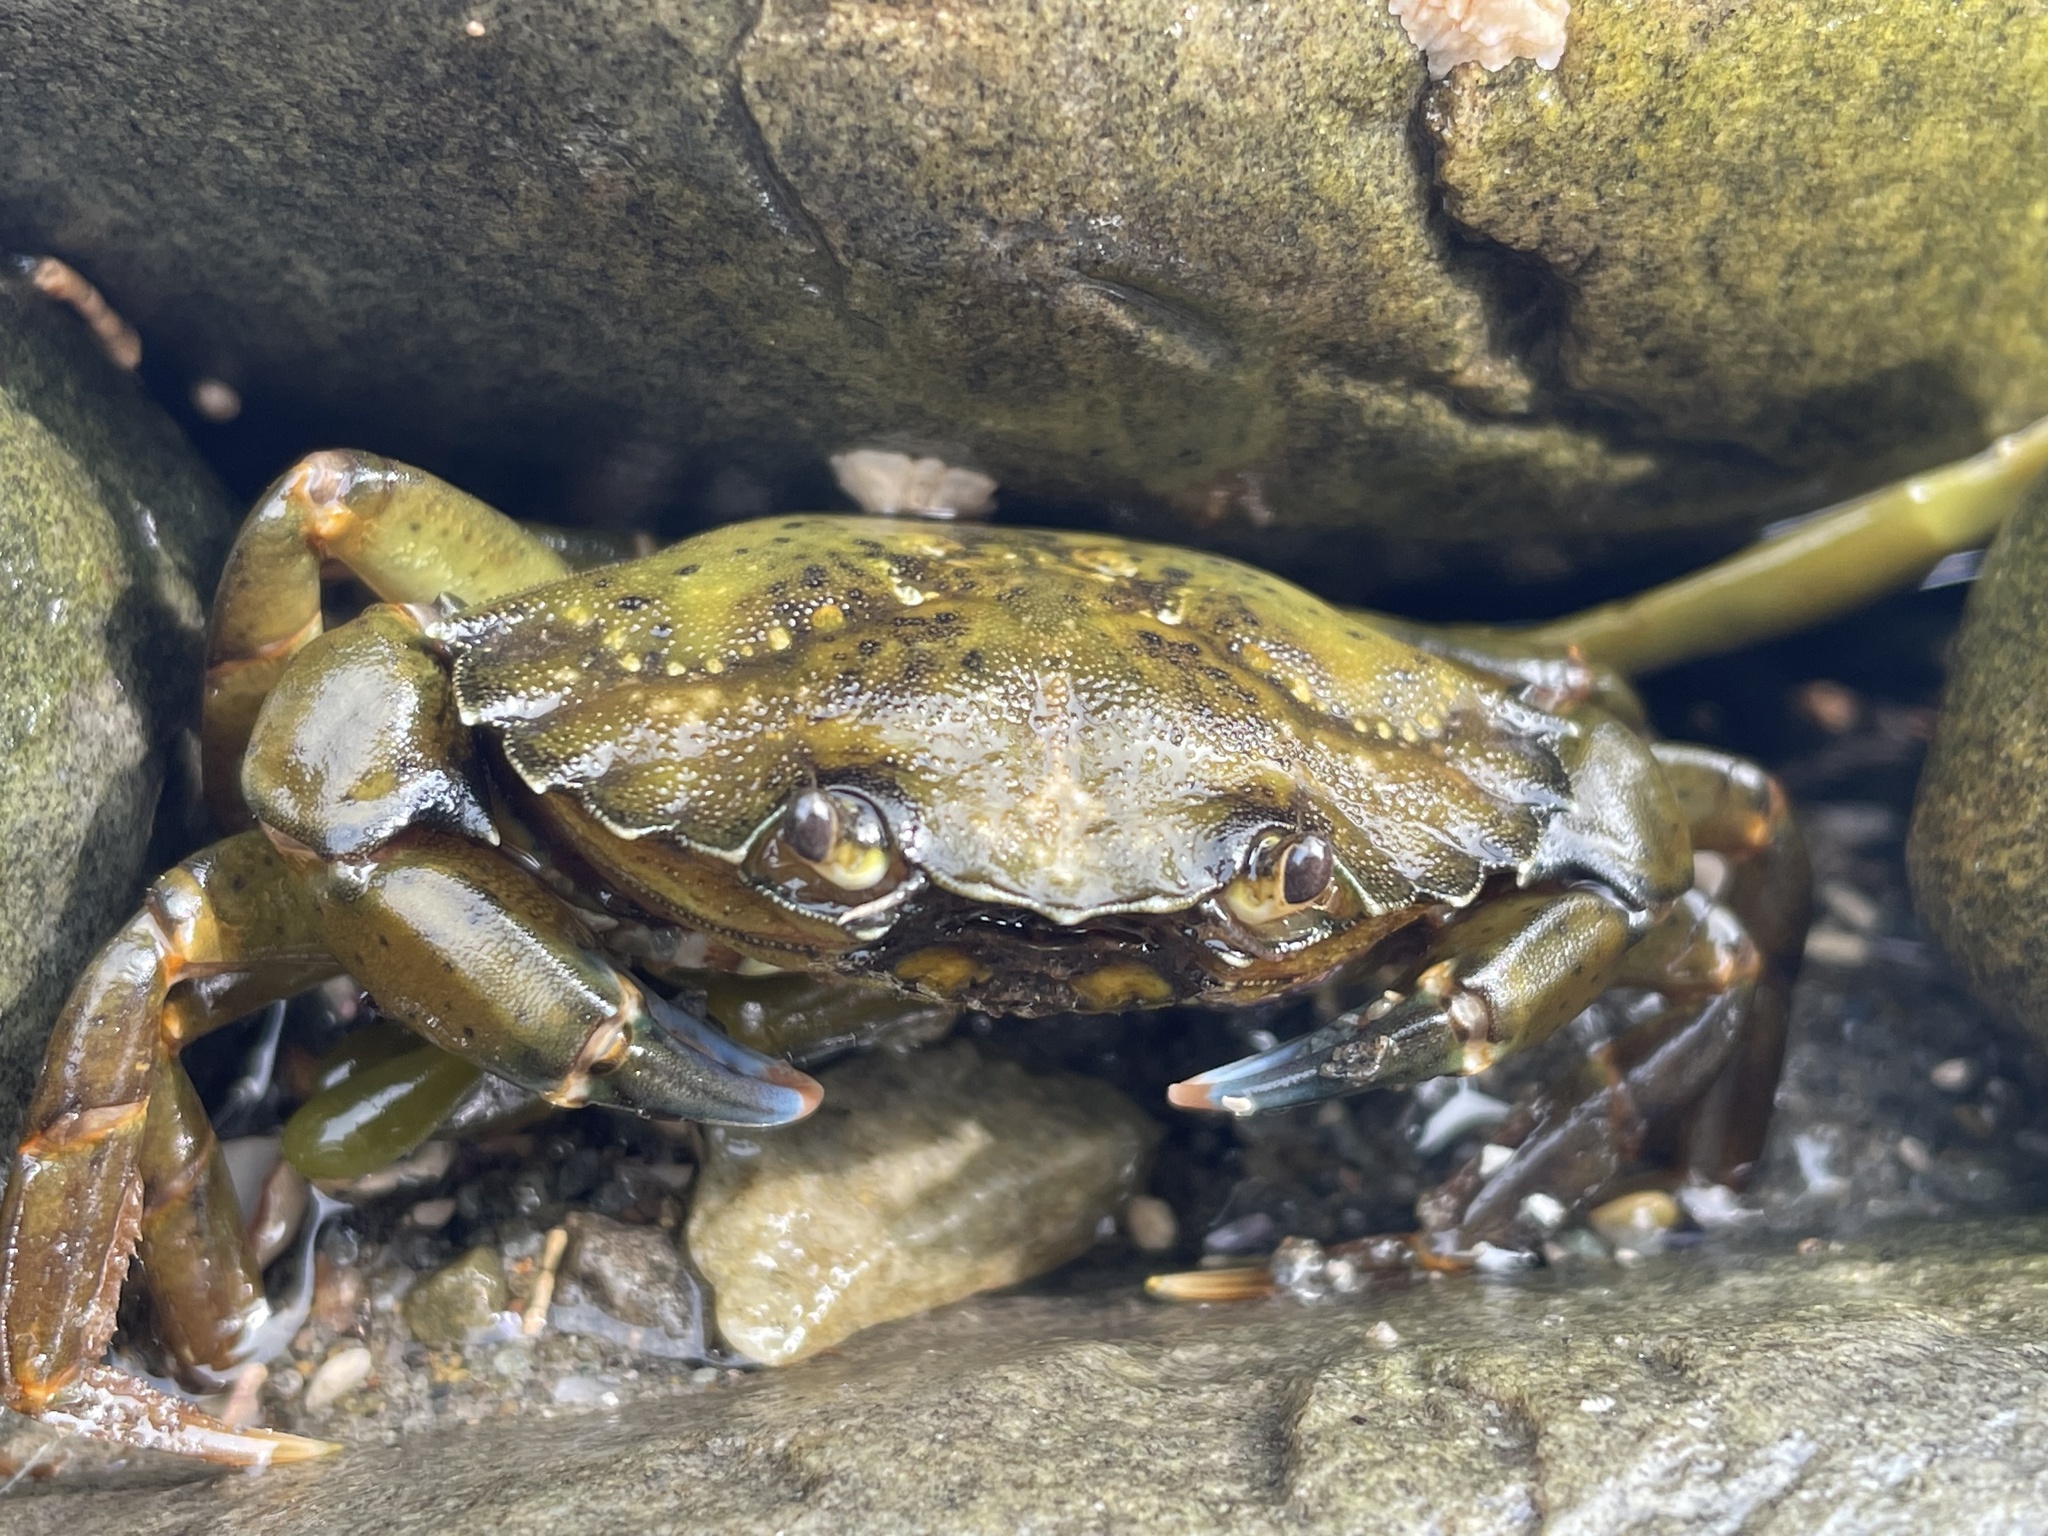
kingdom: Animalia
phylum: Arthropoda
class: Malacostraca
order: Decapoda
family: Carcinidae
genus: Carcinus
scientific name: Carcinus maenas
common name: European green crab
